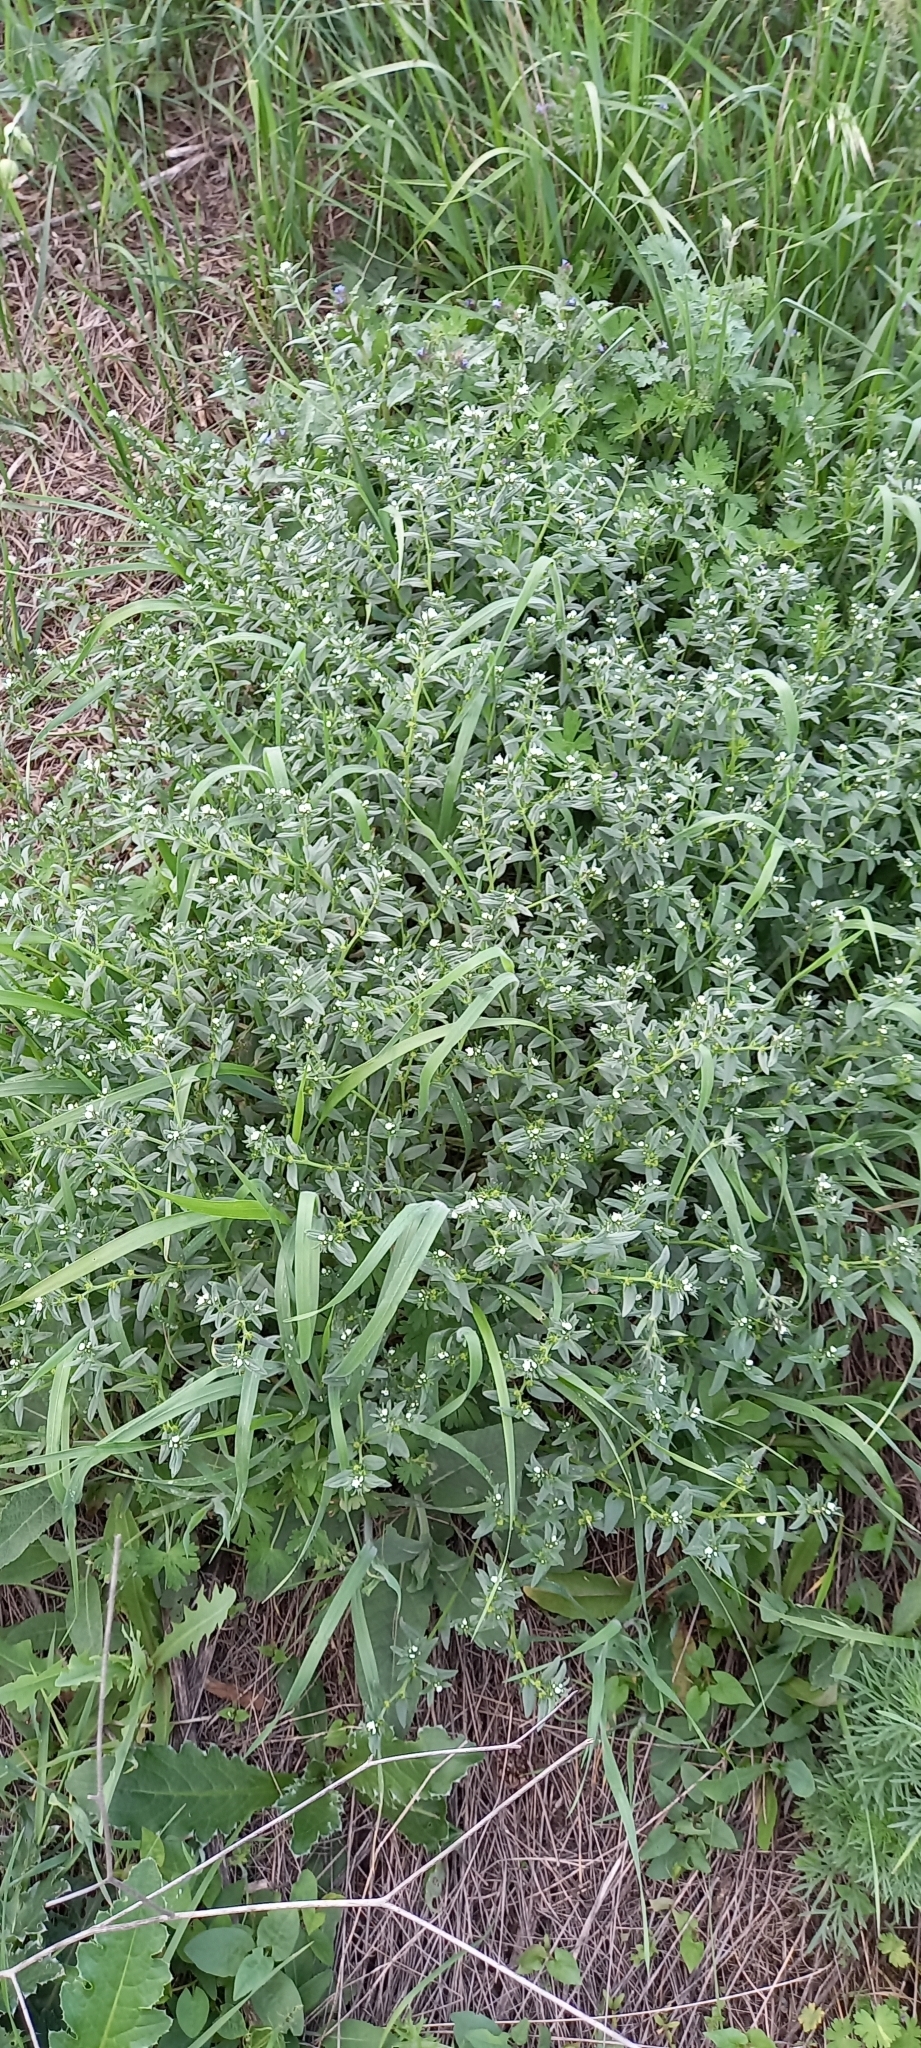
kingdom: Plantae
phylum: Tracheophyta
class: Magnoliopsida
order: Boraginales
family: Boraginaceae
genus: Buglossoides
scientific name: Buglossoides arvensis
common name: Corn gromwell
